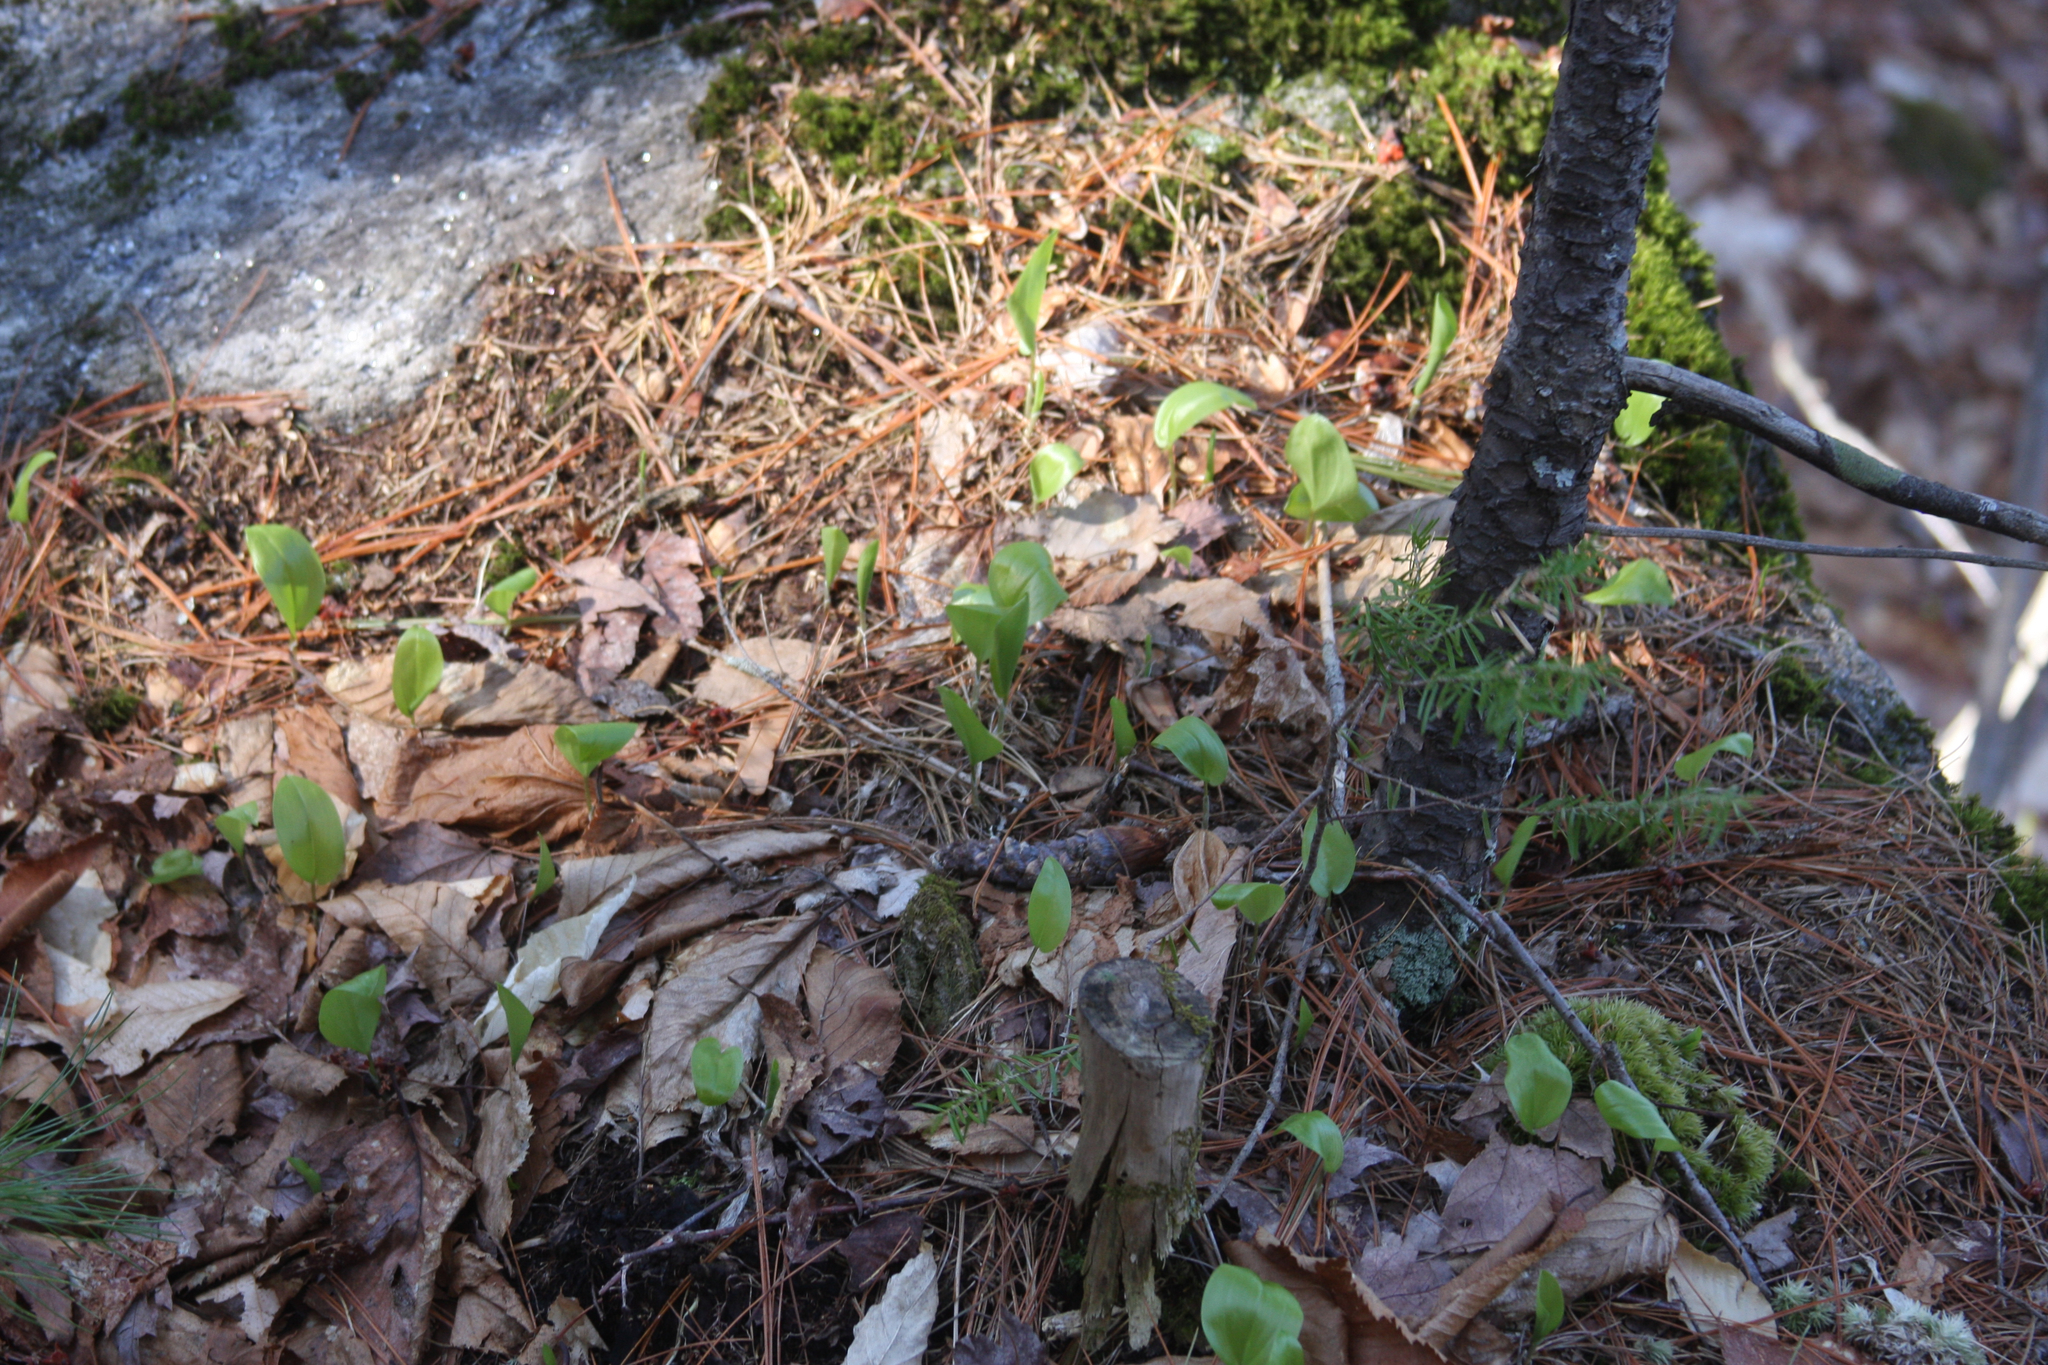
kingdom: Plantae
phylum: Tracheophyta
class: Liliopsida
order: Asparagales
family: Asparagaceae
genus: Maianthemum
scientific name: Maianthemum canadense
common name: False lily-of-the-valley
